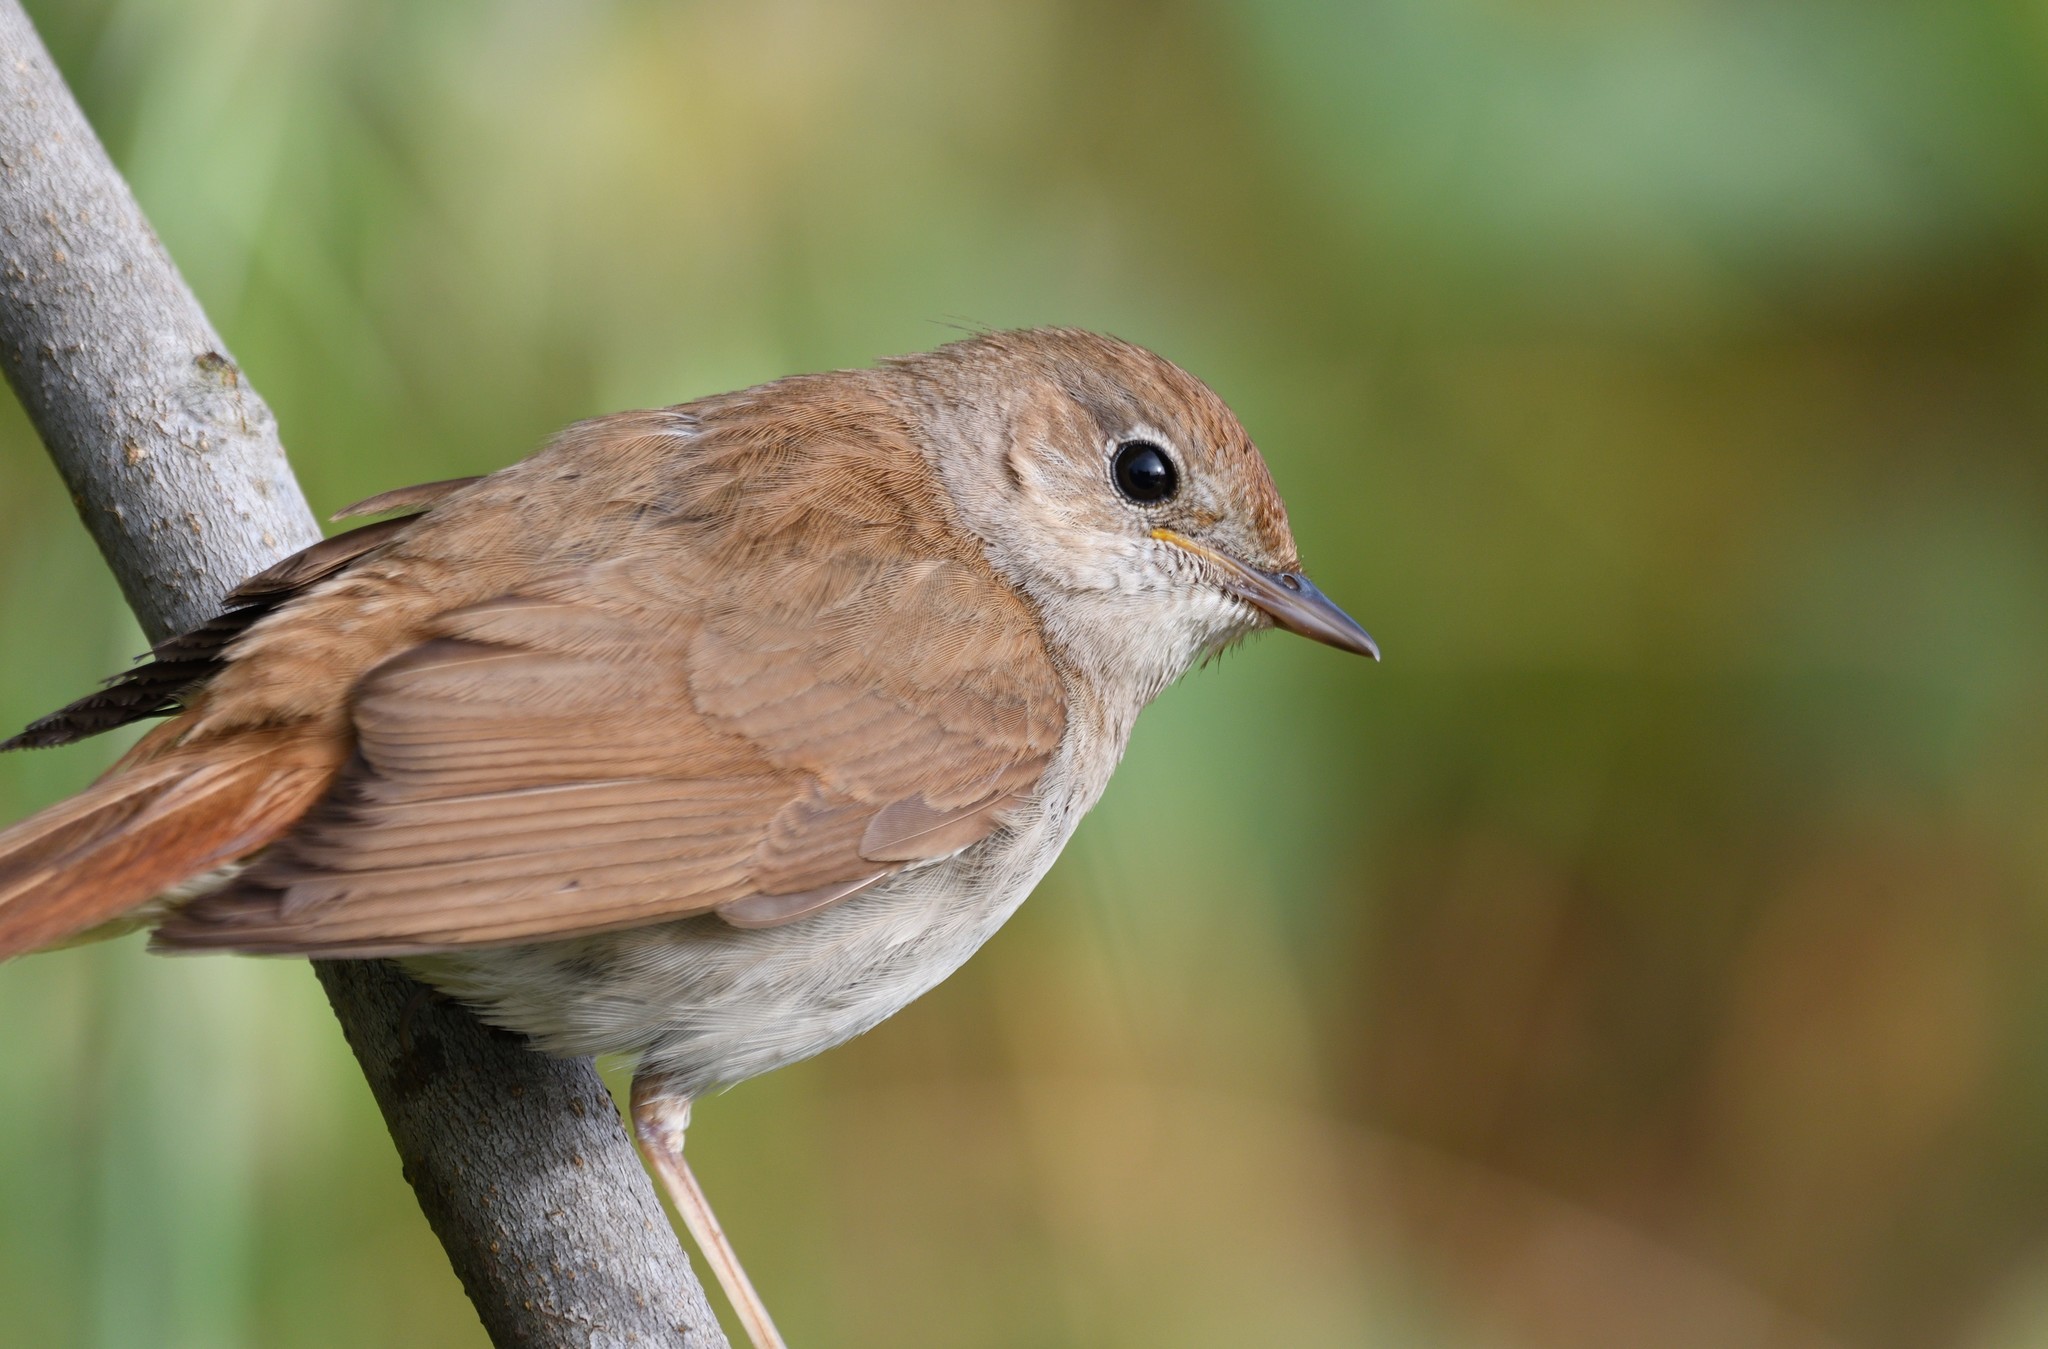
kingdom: Animalia
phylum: Chordata
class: Aves
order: Passeriformes
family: Muscicapidae
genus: Luscinia
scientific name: Luscinia megarhynchos
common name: Common nightingale
